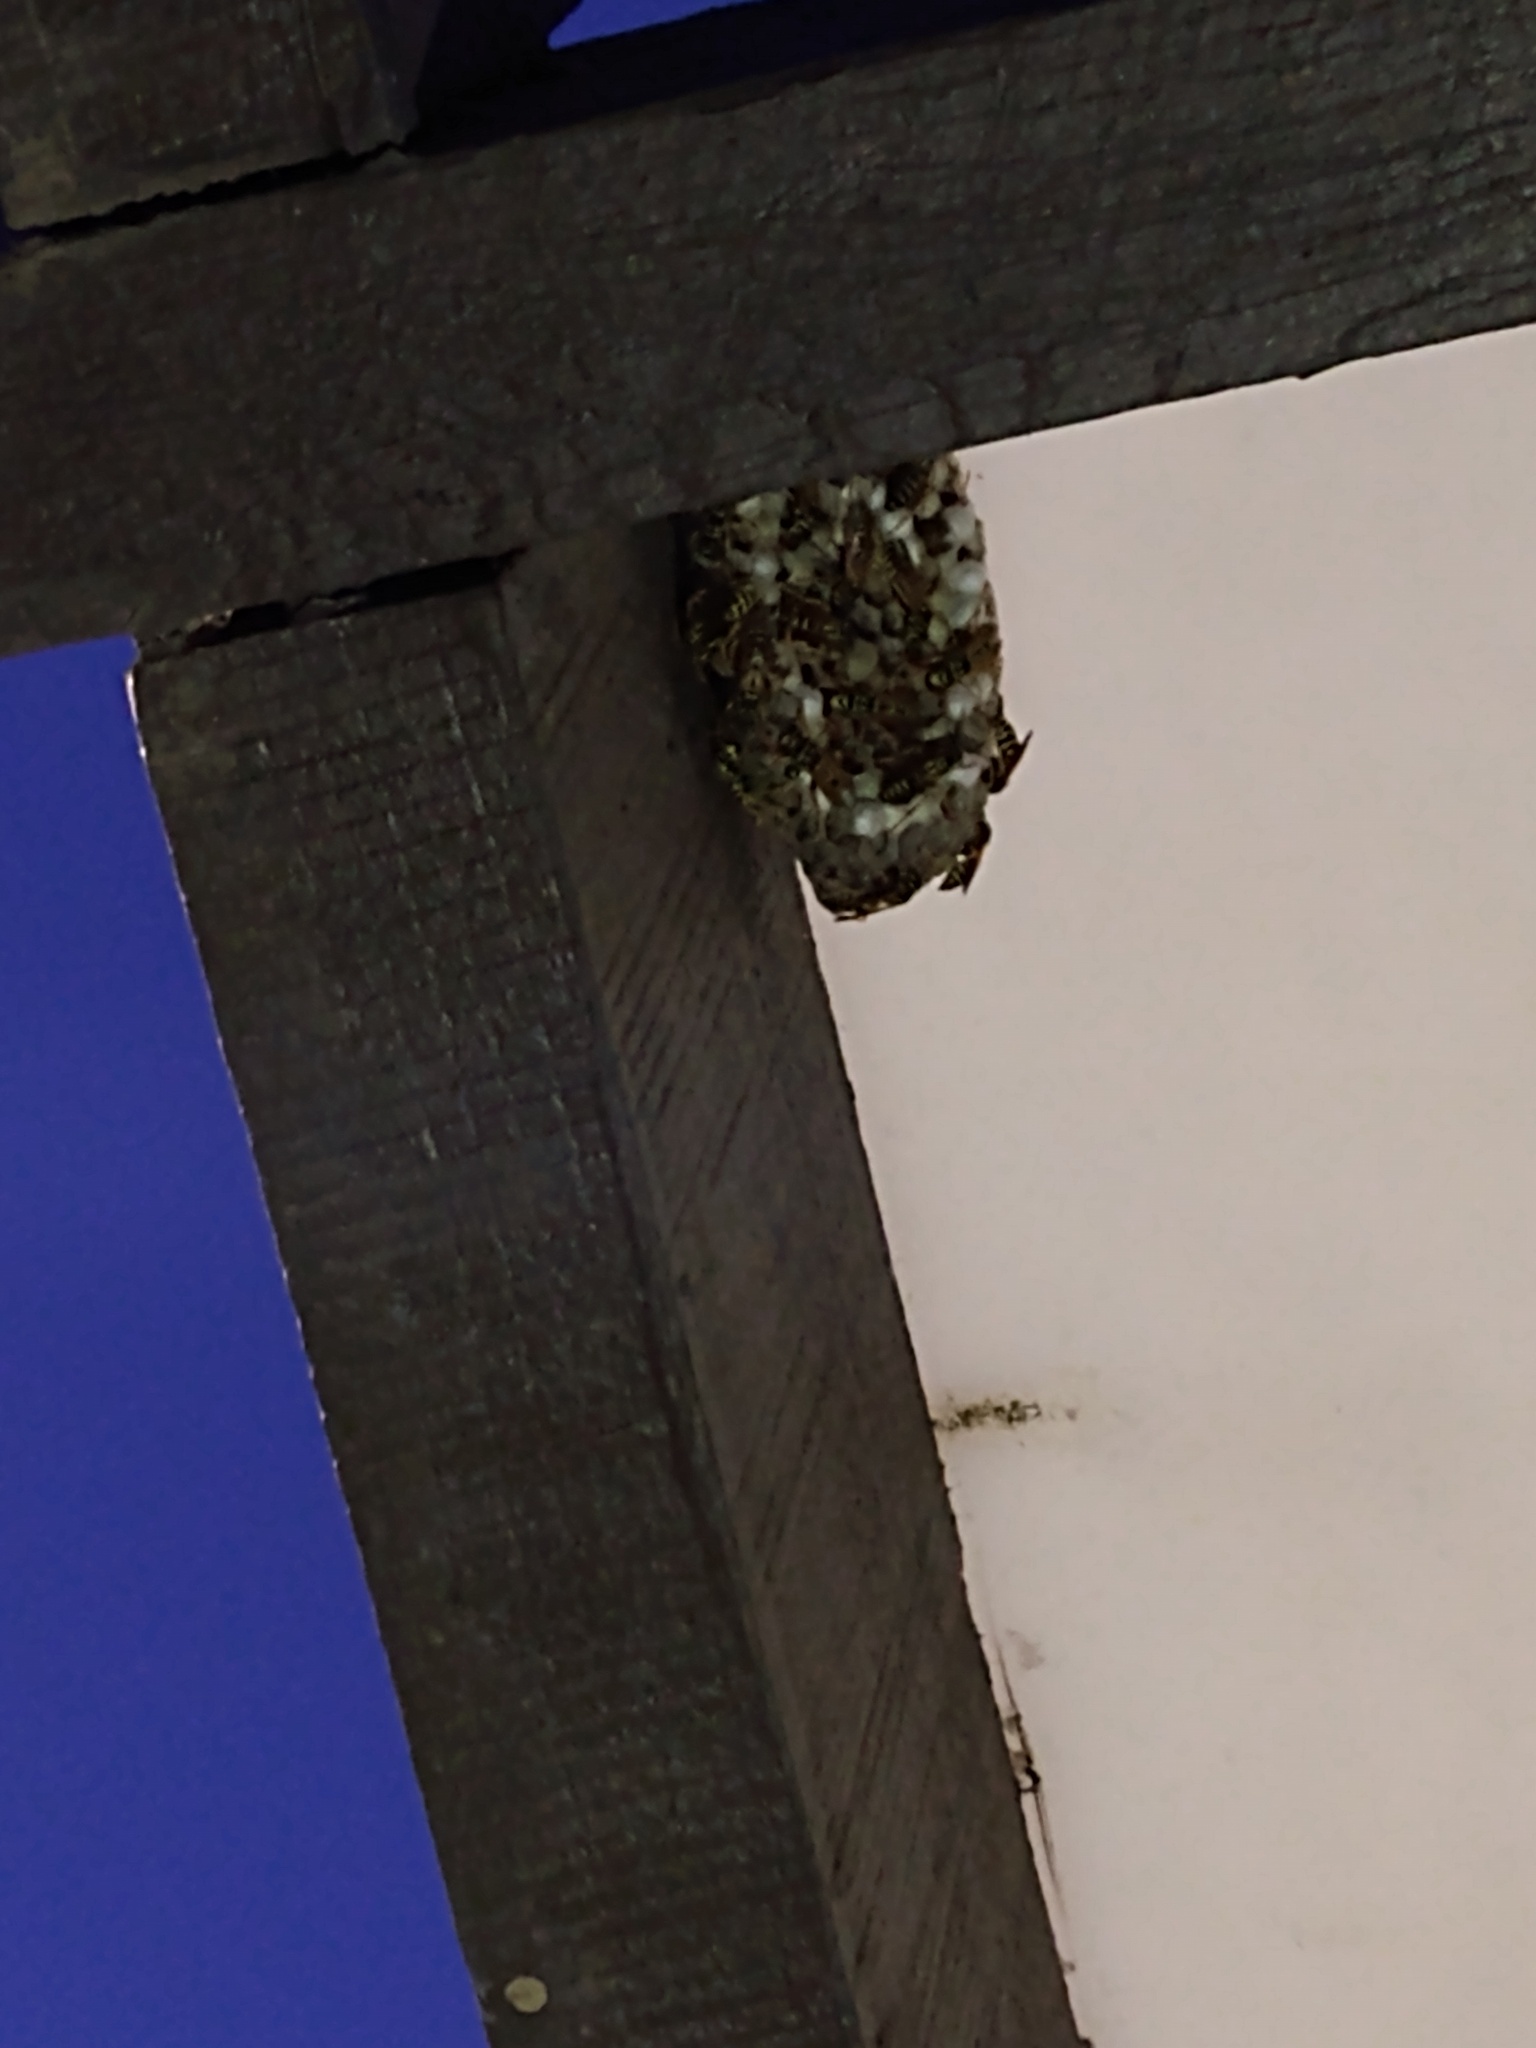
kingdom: Animalia
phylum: Arthropoda
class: Insecta
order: Hymenoptera
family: Eumenidae
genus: Polistes
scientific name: Polistes
